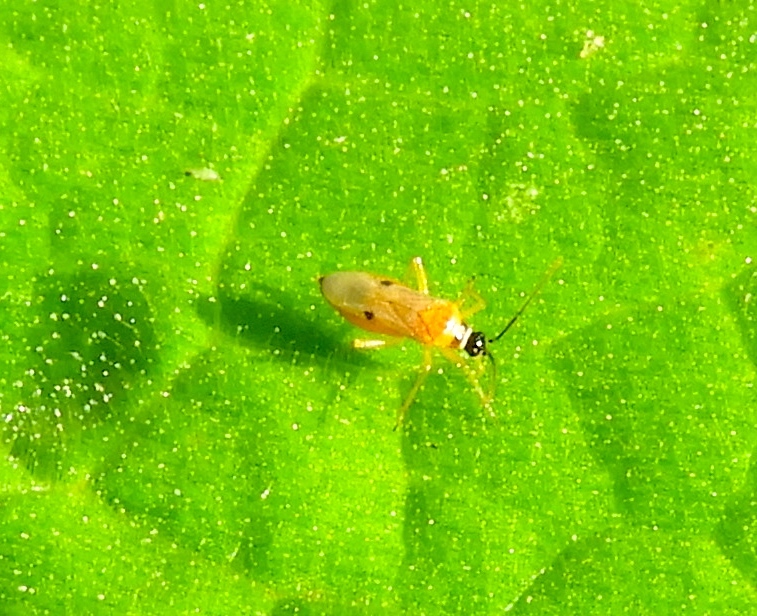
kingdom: Animalia
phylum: Arthropoda
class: Insecta
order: Hemiptera
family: Miridae
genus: Tupiocoris
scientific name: Tupiocoris notatus
